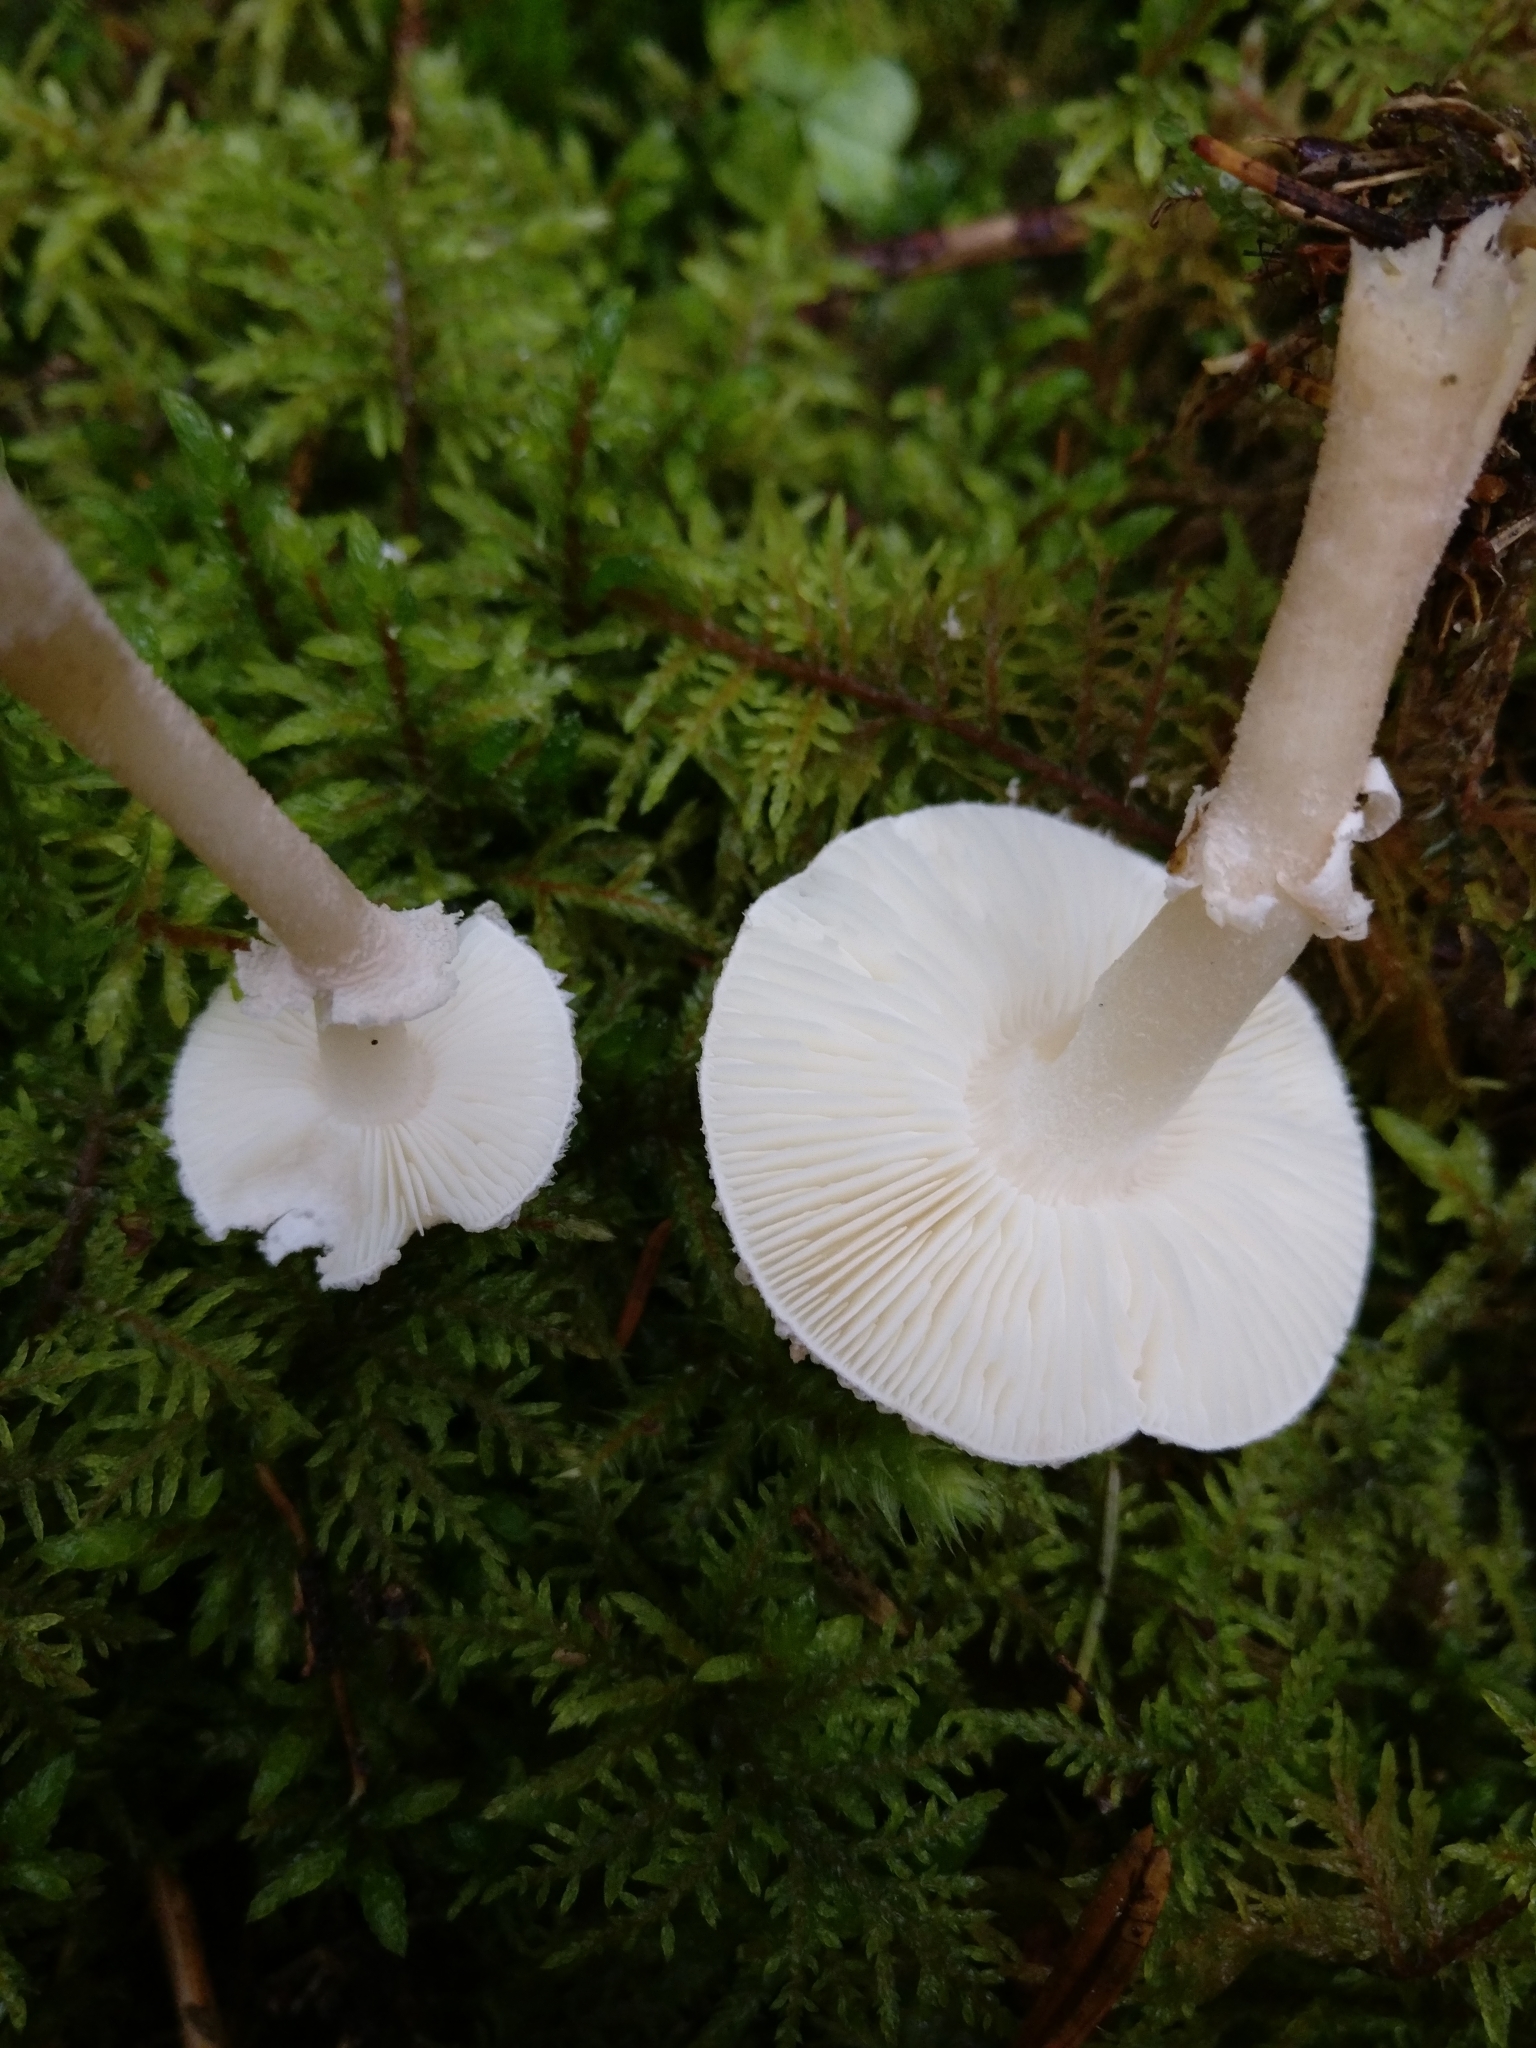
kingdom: Fungi
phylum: Basidiomycota
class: Agaricomycetes
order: Agaricales
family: Tricholomataceae
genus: Cystoderma
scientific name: Cystoderma carcharias
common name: Pearly powdercap
